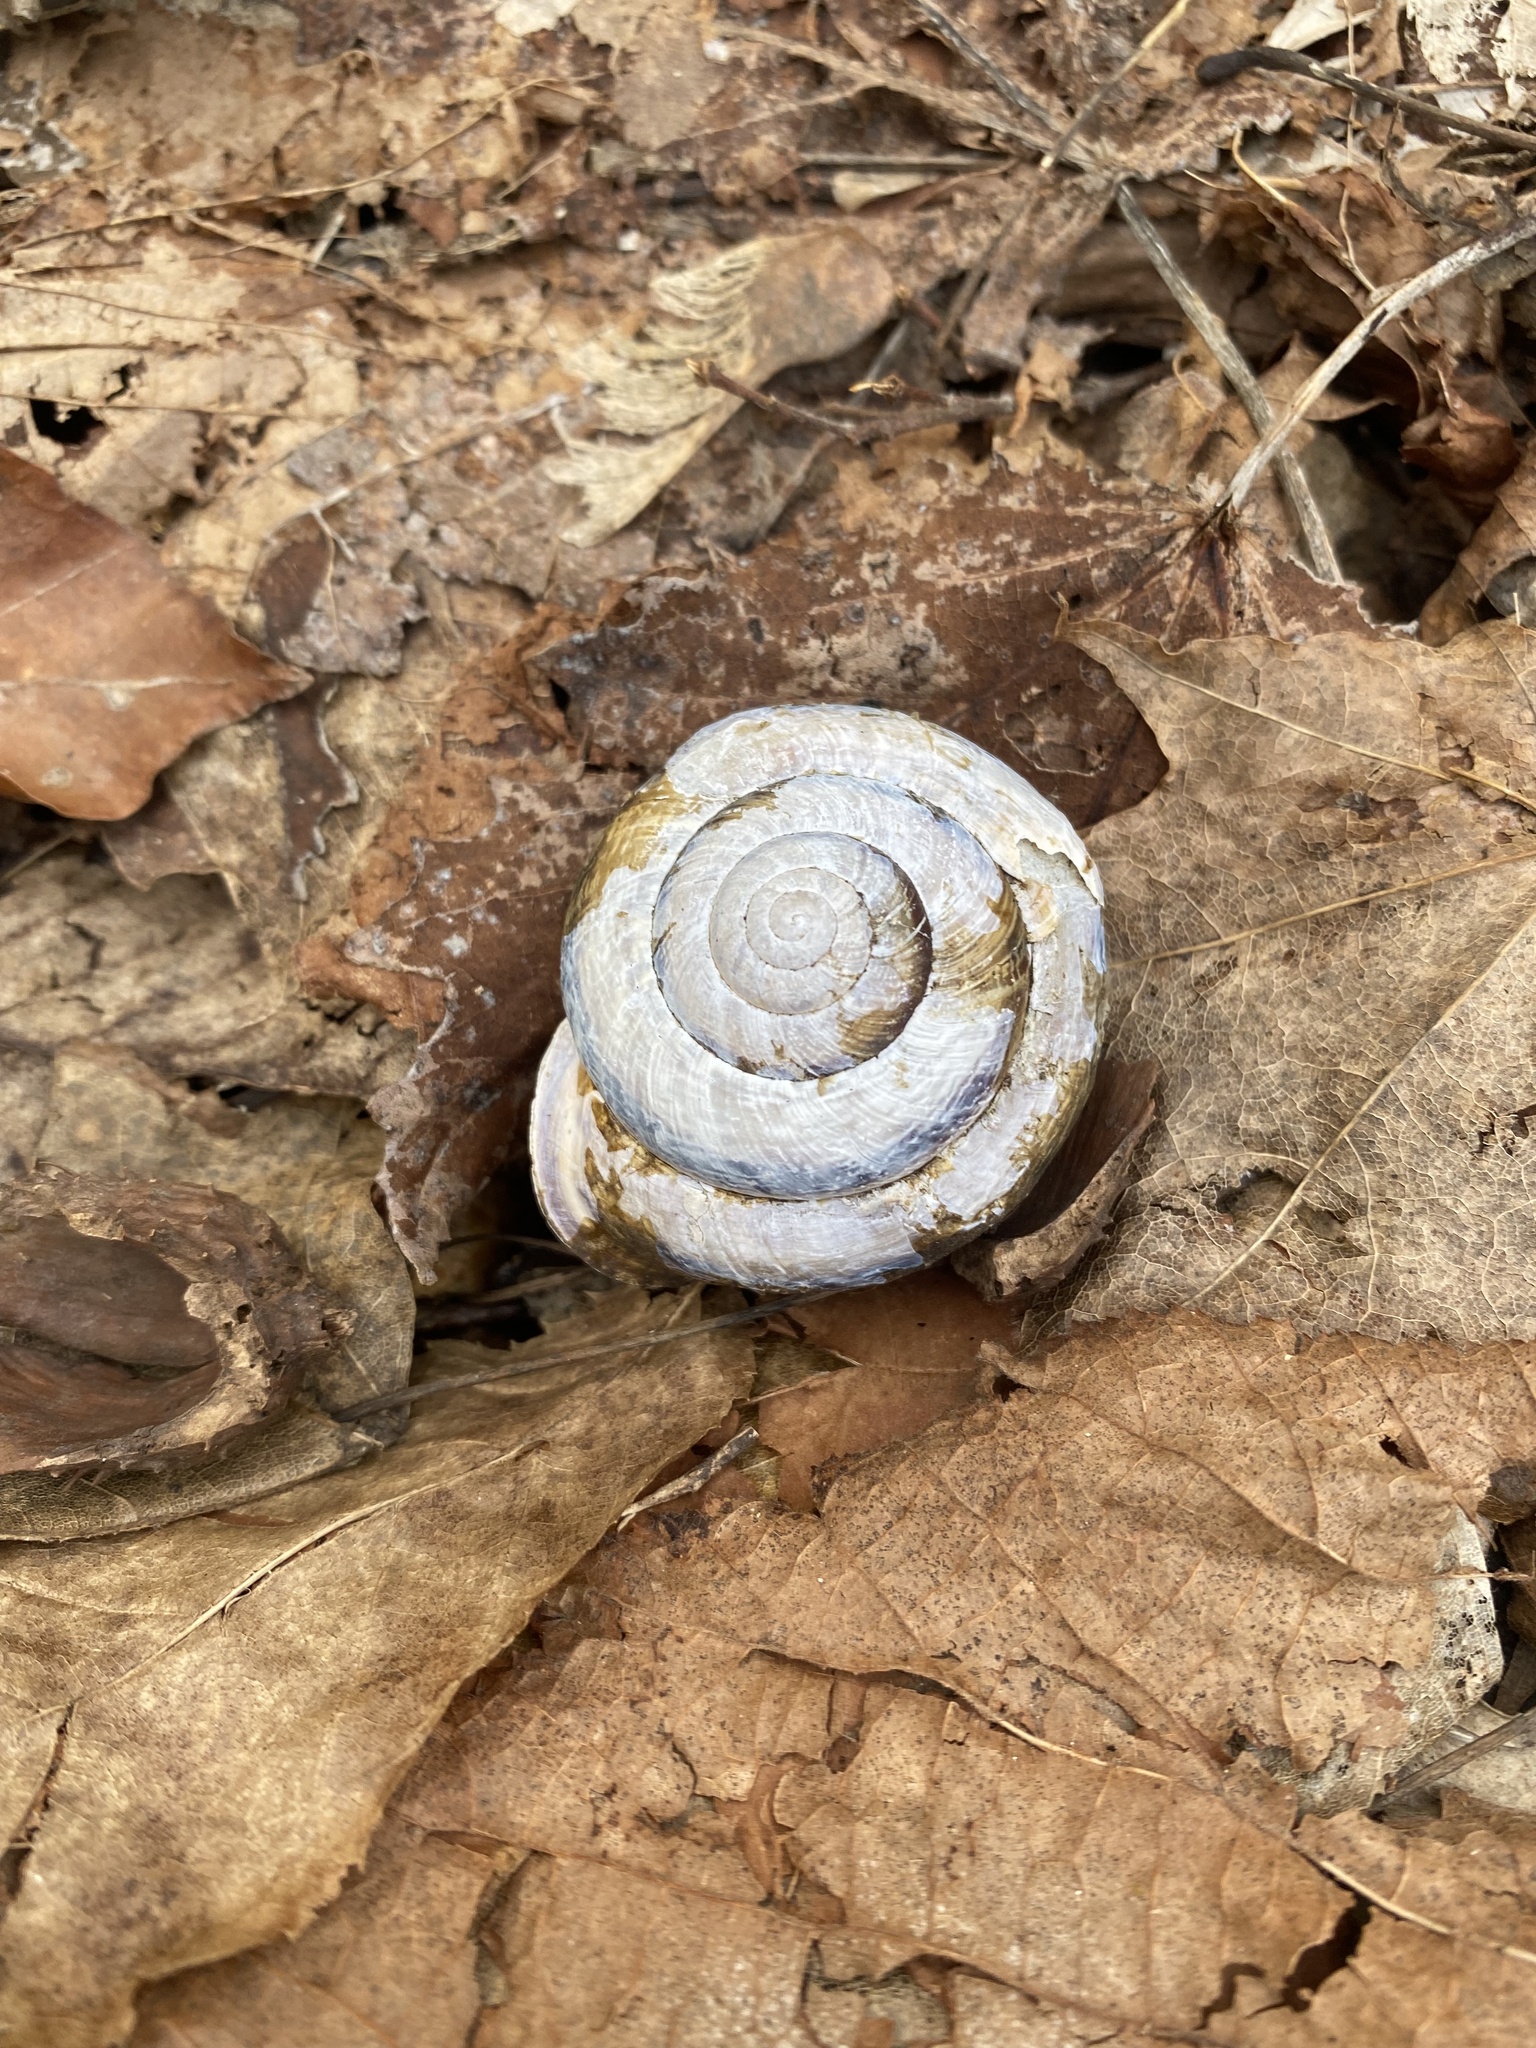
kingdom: Animalia
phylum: Mollusca
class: Gastropoda
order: Stylommatophora
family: Helicidae
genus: Caucasotachea
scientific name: Caucasotachea atrolabiata
